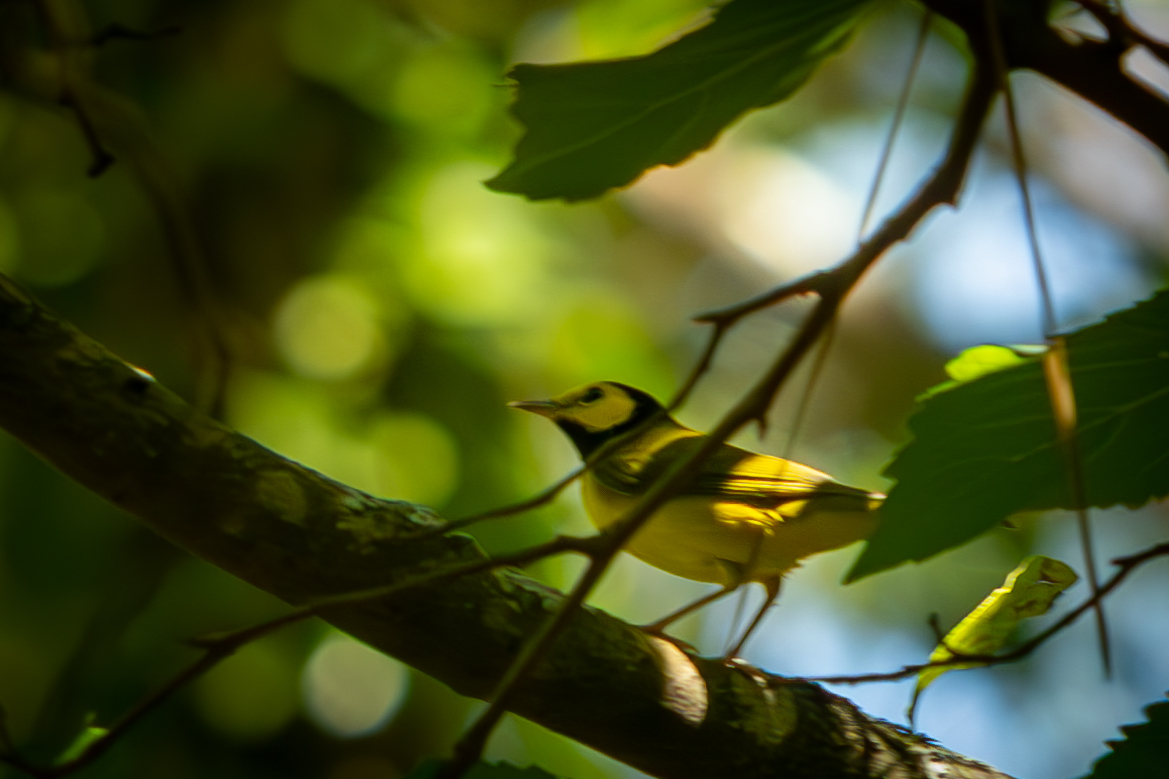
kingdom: Animalia
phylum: Chordata
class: Aves
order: Passeriformes
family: Parulidae
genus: Setophaga
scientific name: Setophaga citrina
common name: Hooded warbler
